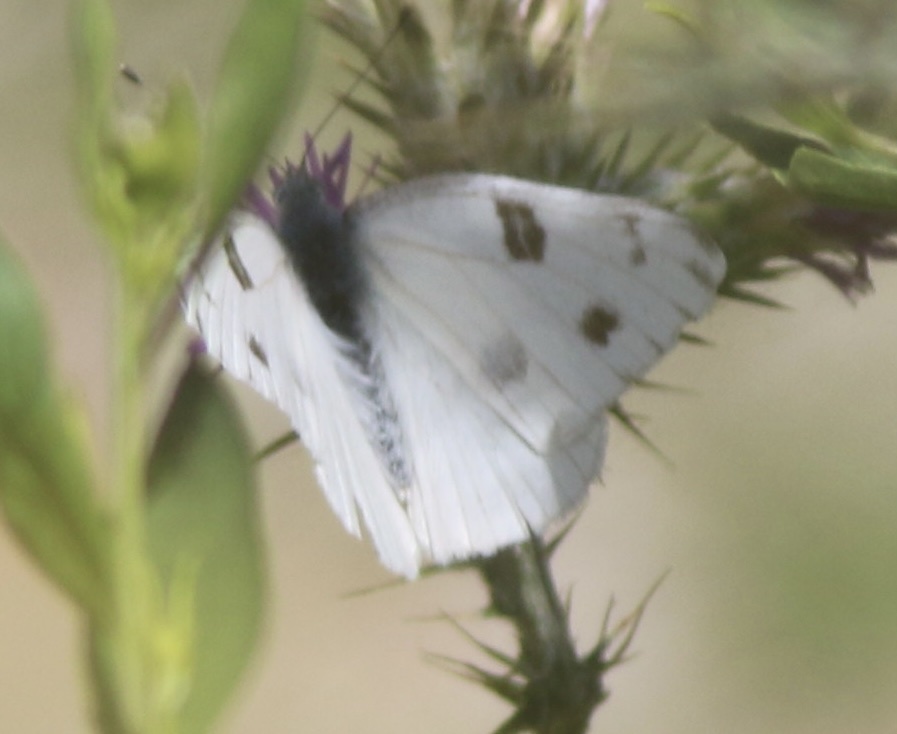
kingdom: Animalia
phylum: Arthropoda
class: Insecta
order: Lepidoptera
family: Pieridae
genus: Pontia
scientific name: Pontia protodice
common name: Checkered white
